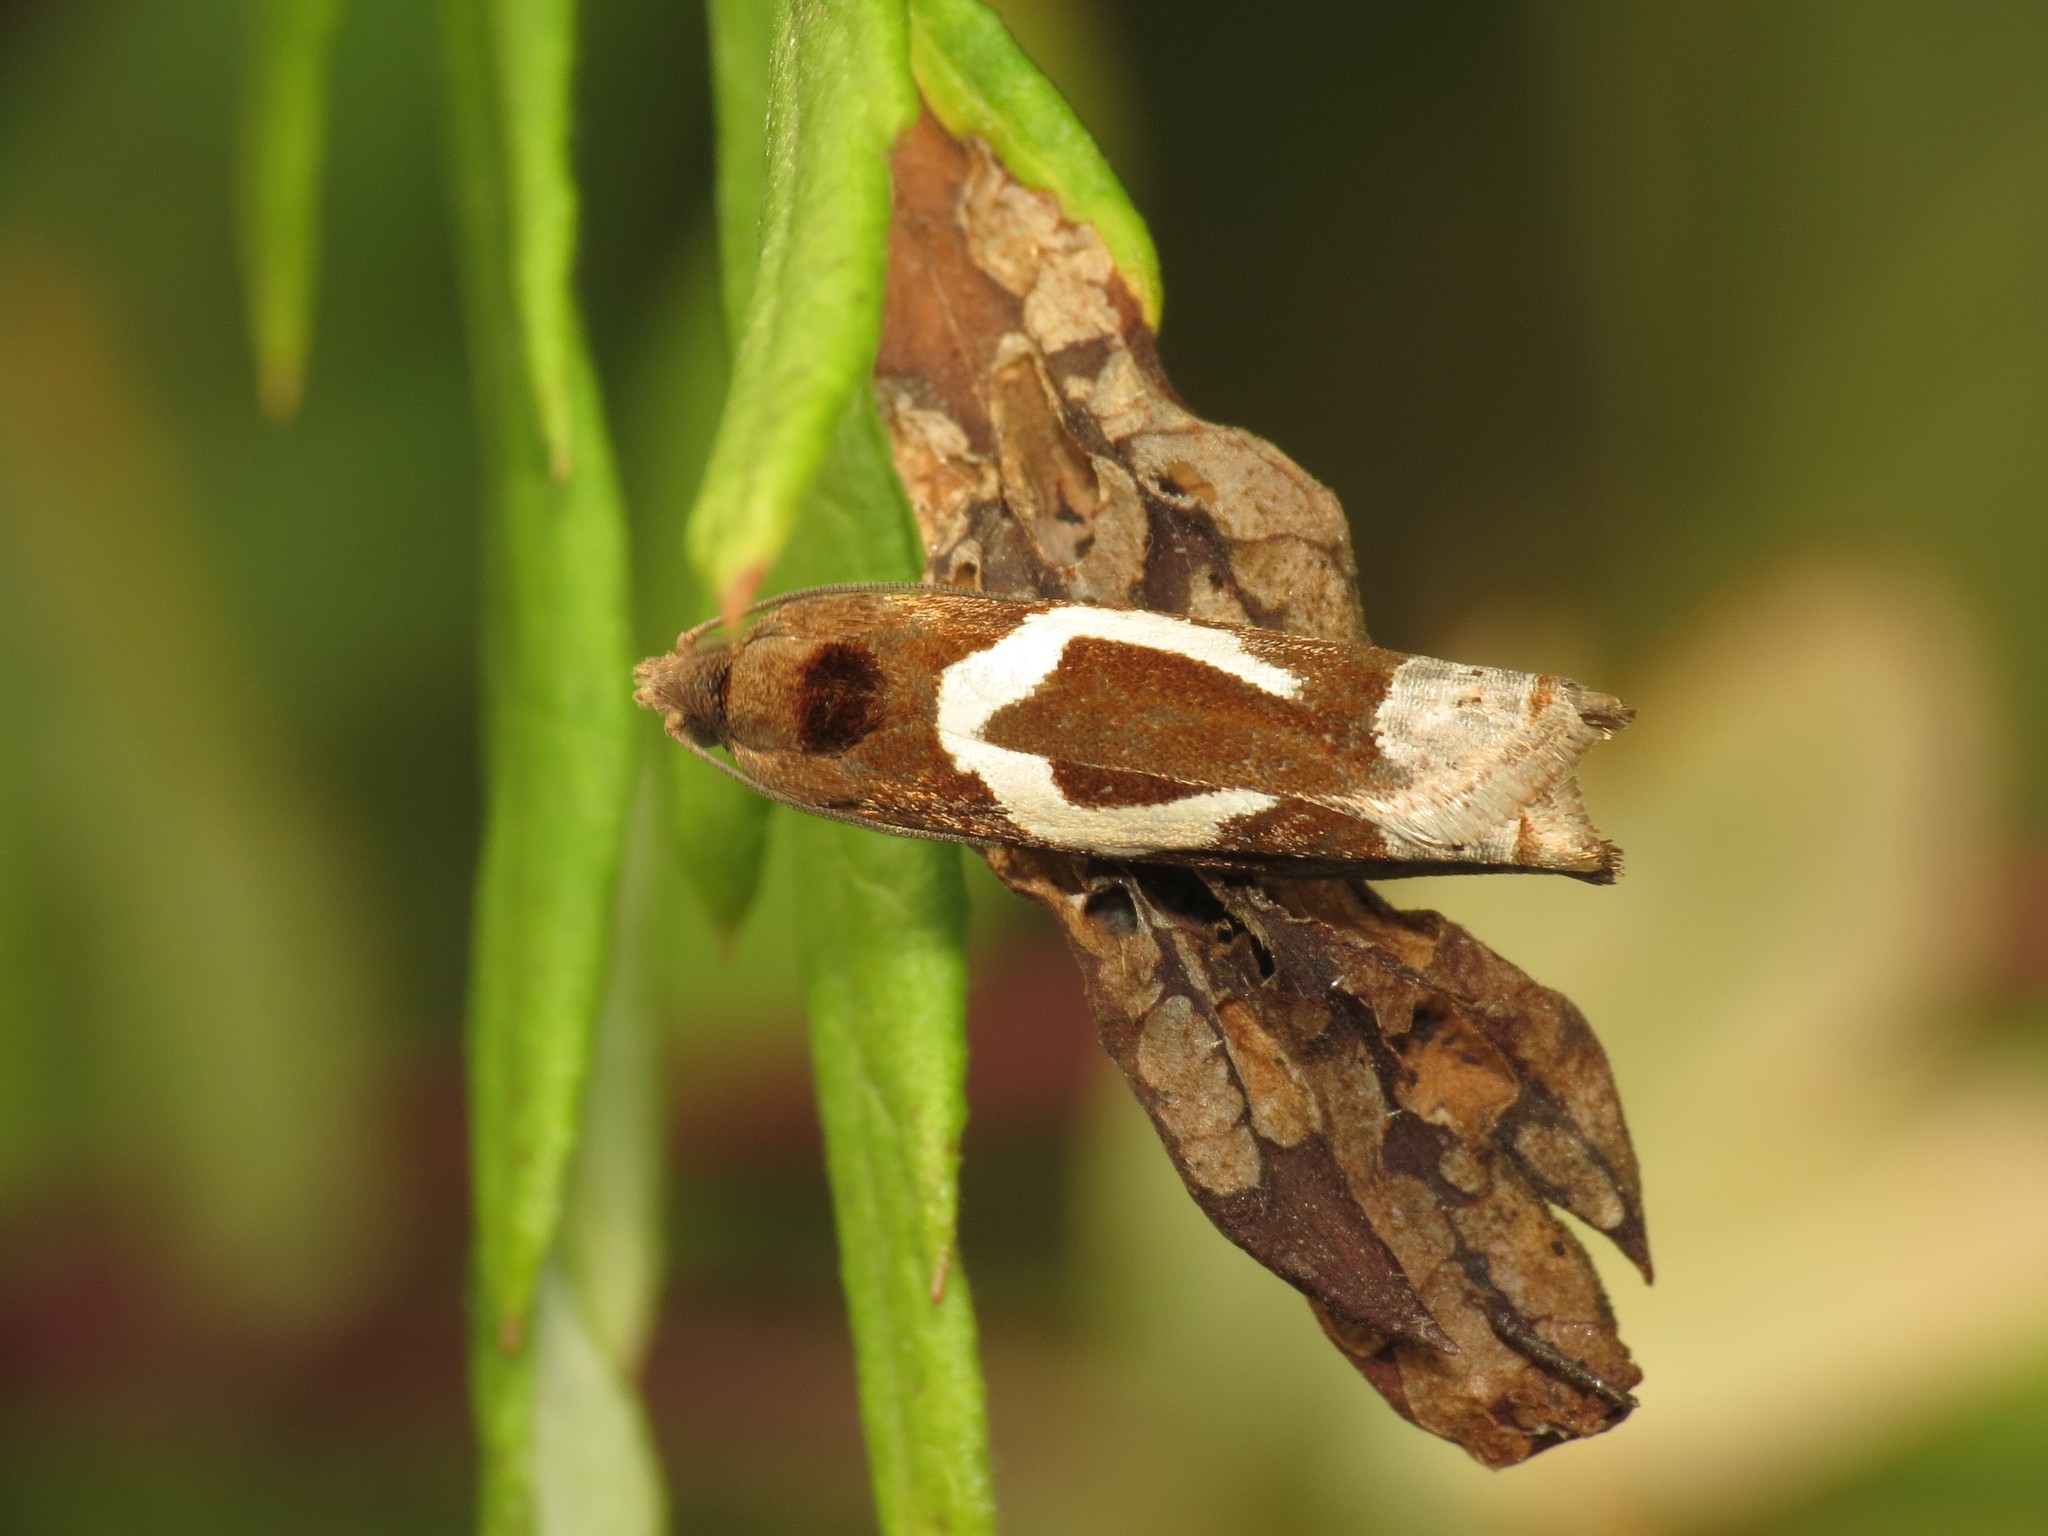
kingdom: Animalia
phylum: Arthropoda
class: Insecta
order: Lepidoptera
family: Tortricidae
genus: Epiblema
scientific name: Epiblema foenella
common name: White-foot bell
